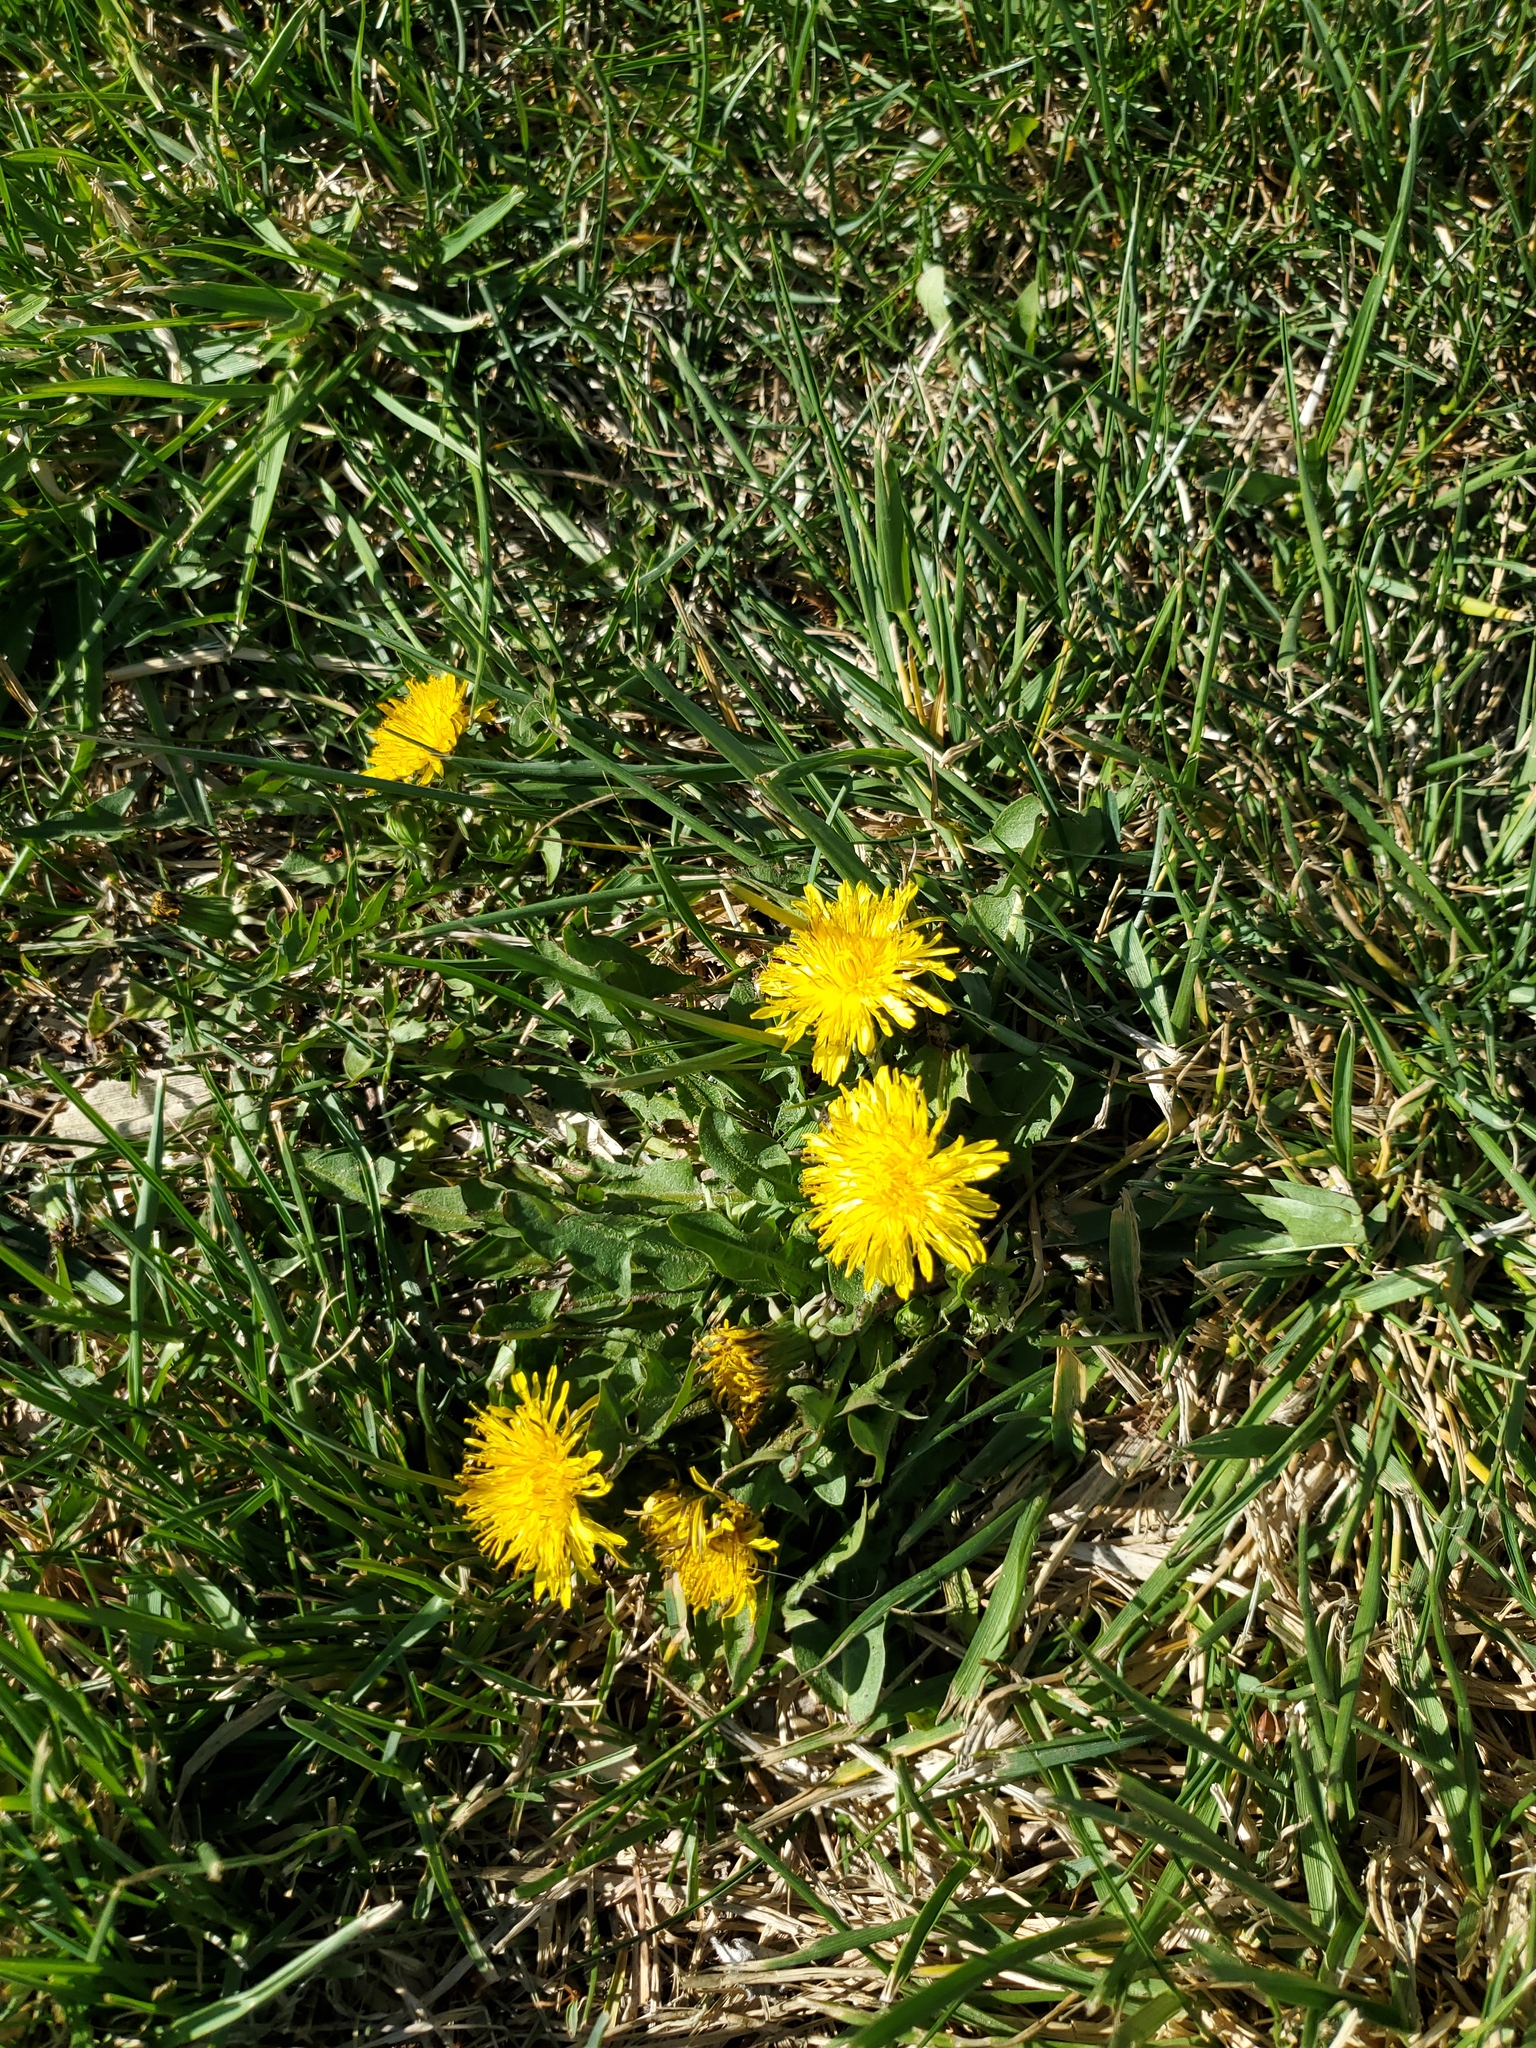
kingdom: Plantae
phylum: Tracheophyta
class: Magnoliopsida
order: Asterales
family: Asteraceae
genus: Taraxacum
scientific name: Taraxacum
